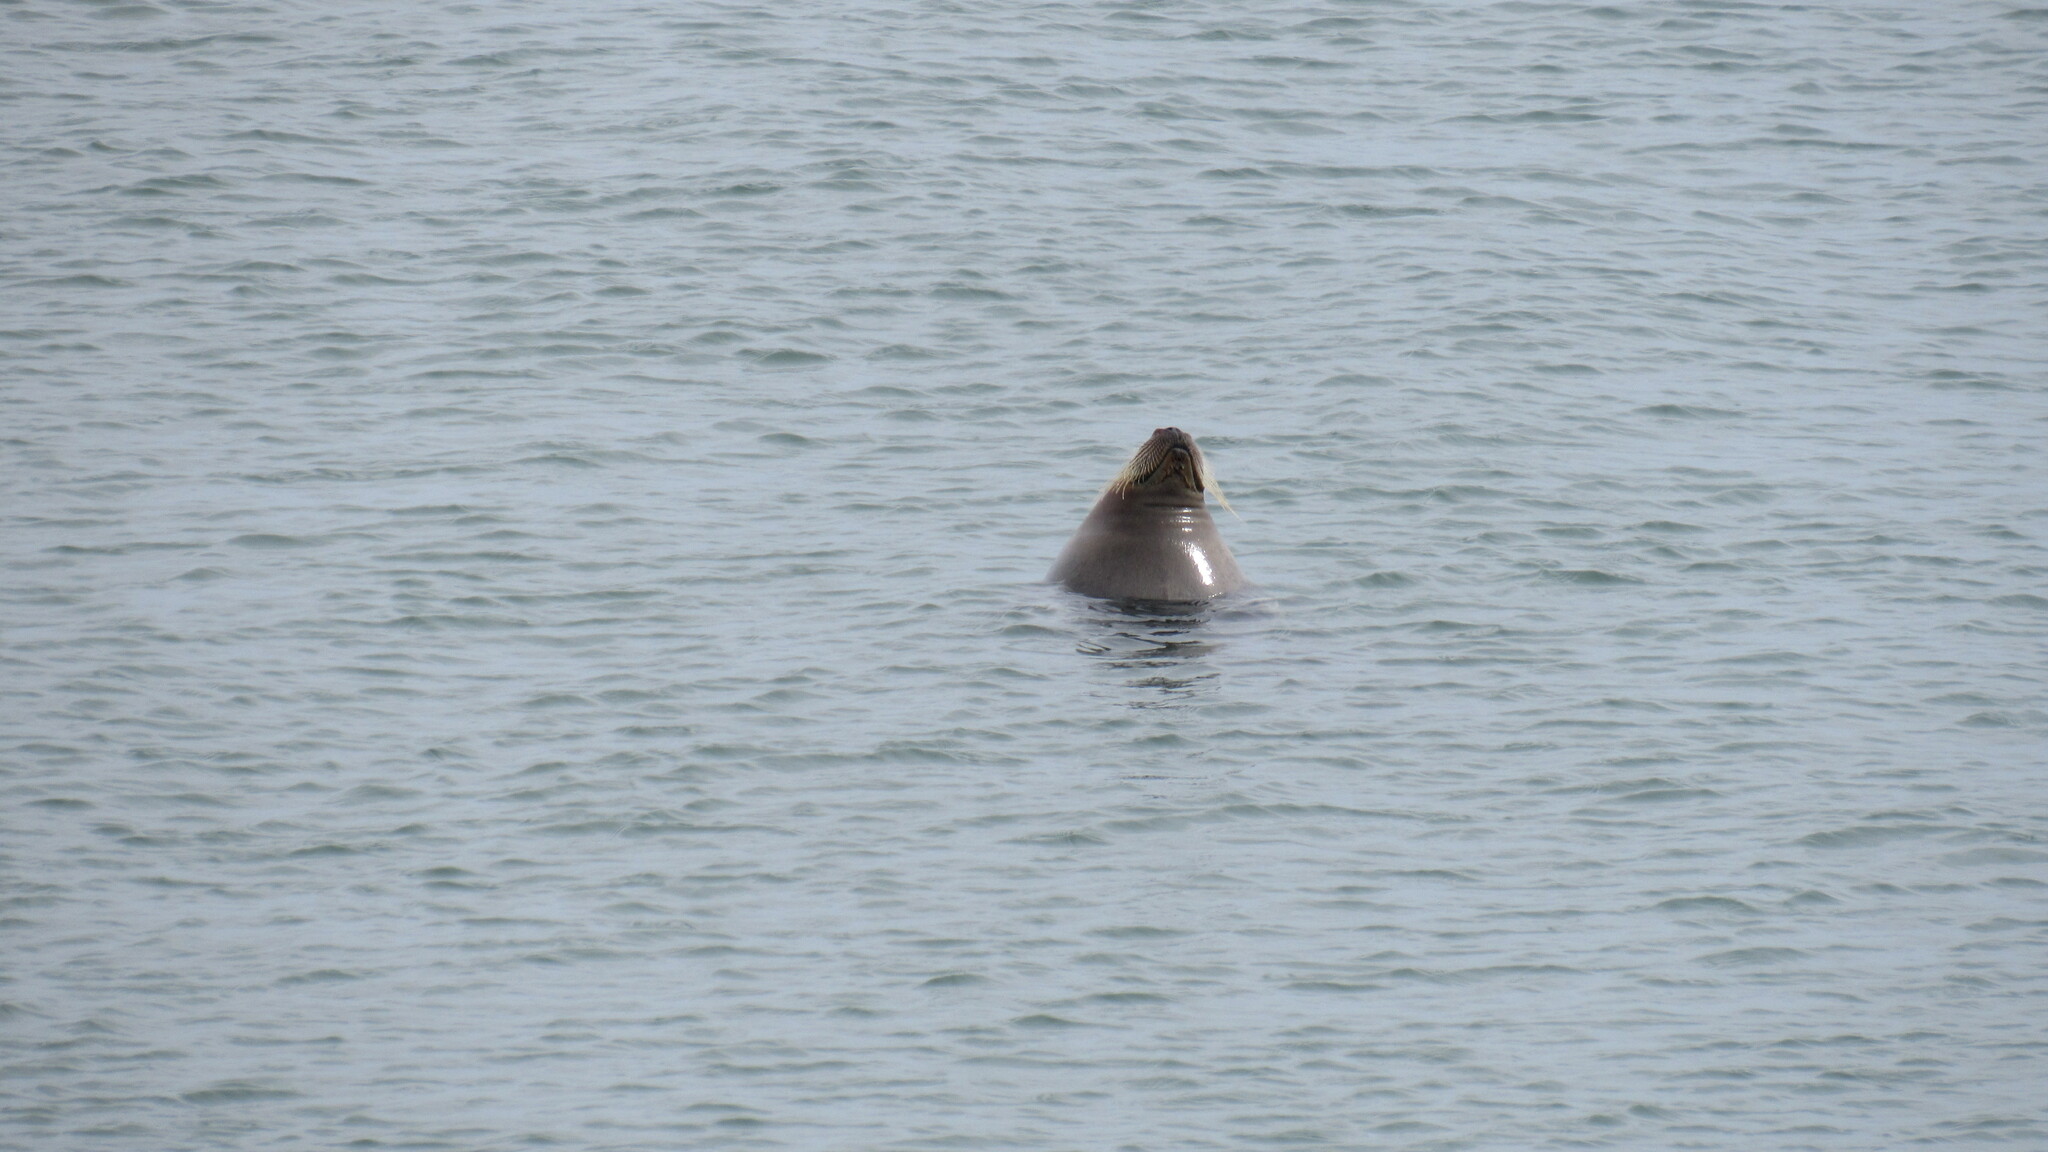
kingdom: Animalia
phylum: Chordata
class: Mammalia
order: Carnivora
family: Phocidae
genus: Erignathus
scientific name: Erignathus barbatus
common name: Bearded seal
